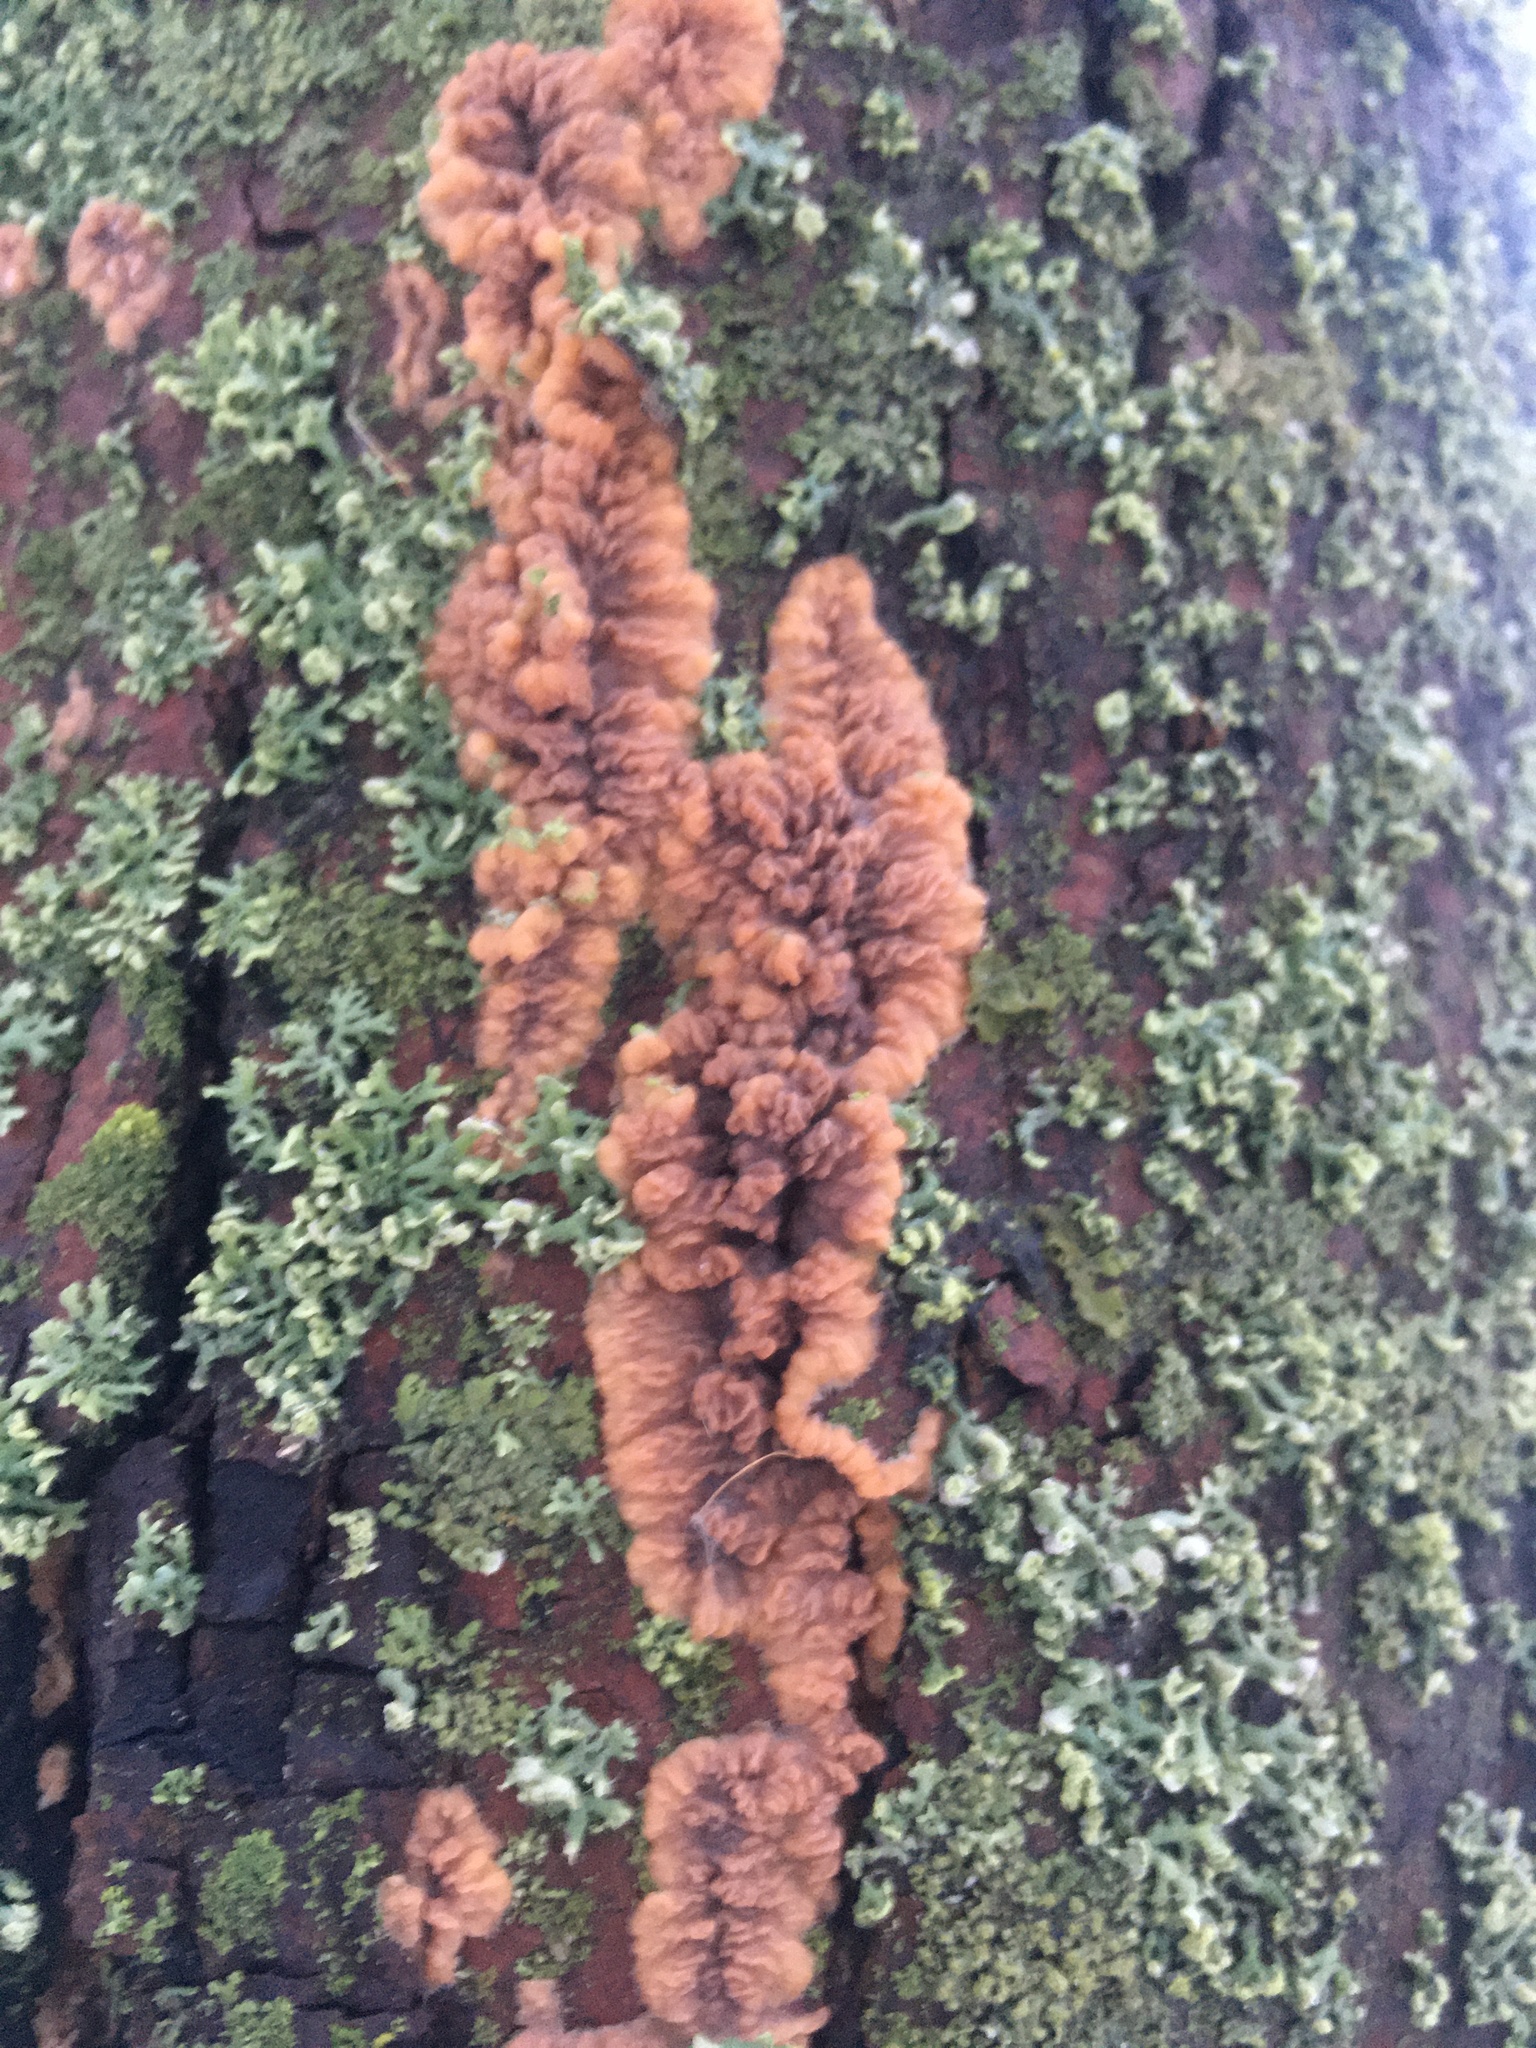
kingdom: Fungi
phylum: Basidiomycota
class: Agaricomycetes
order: Polyporales
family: Meruliaceae
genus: Phlebia
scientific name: Phlebia radiata
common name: Wrinkled crust
